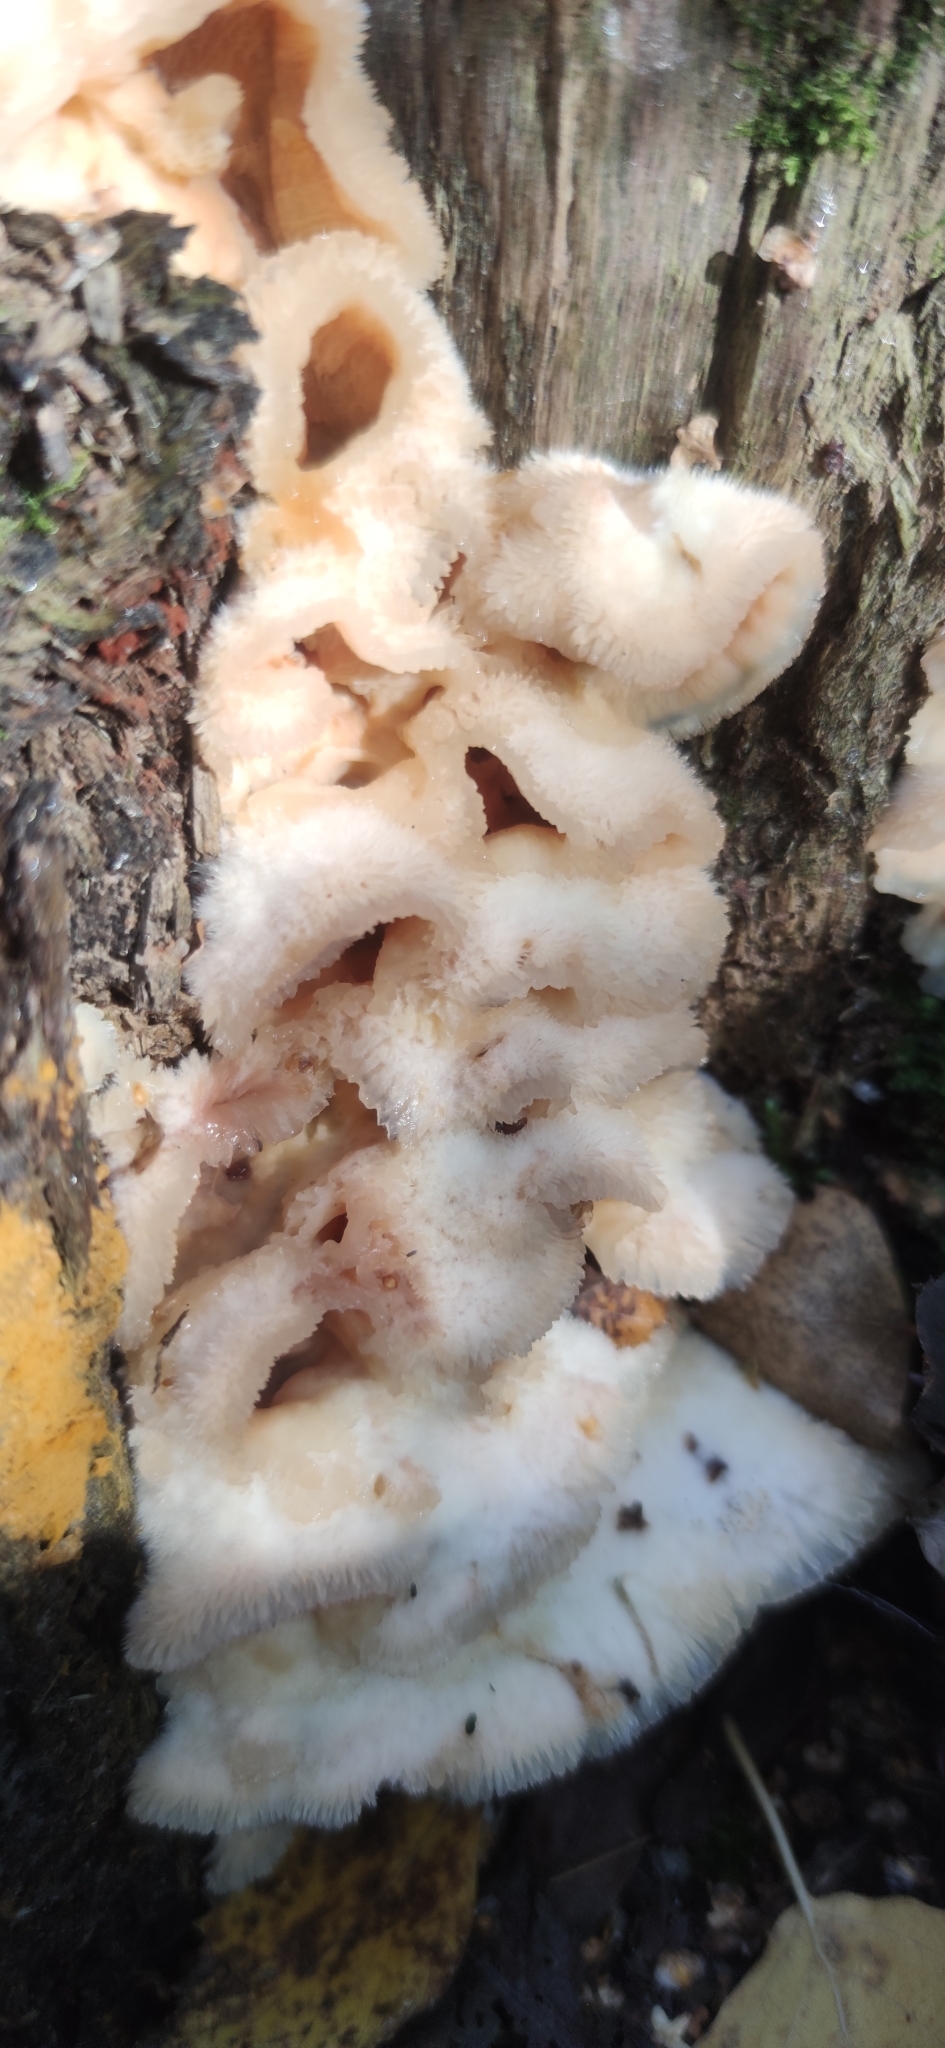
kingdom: Fungi
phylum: Basidiomycota
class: Agaricomycetes
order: Polyporales
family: Meruliaceae
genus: Phlebia
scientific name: Phlebia tremellosa
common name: Jelly rot
